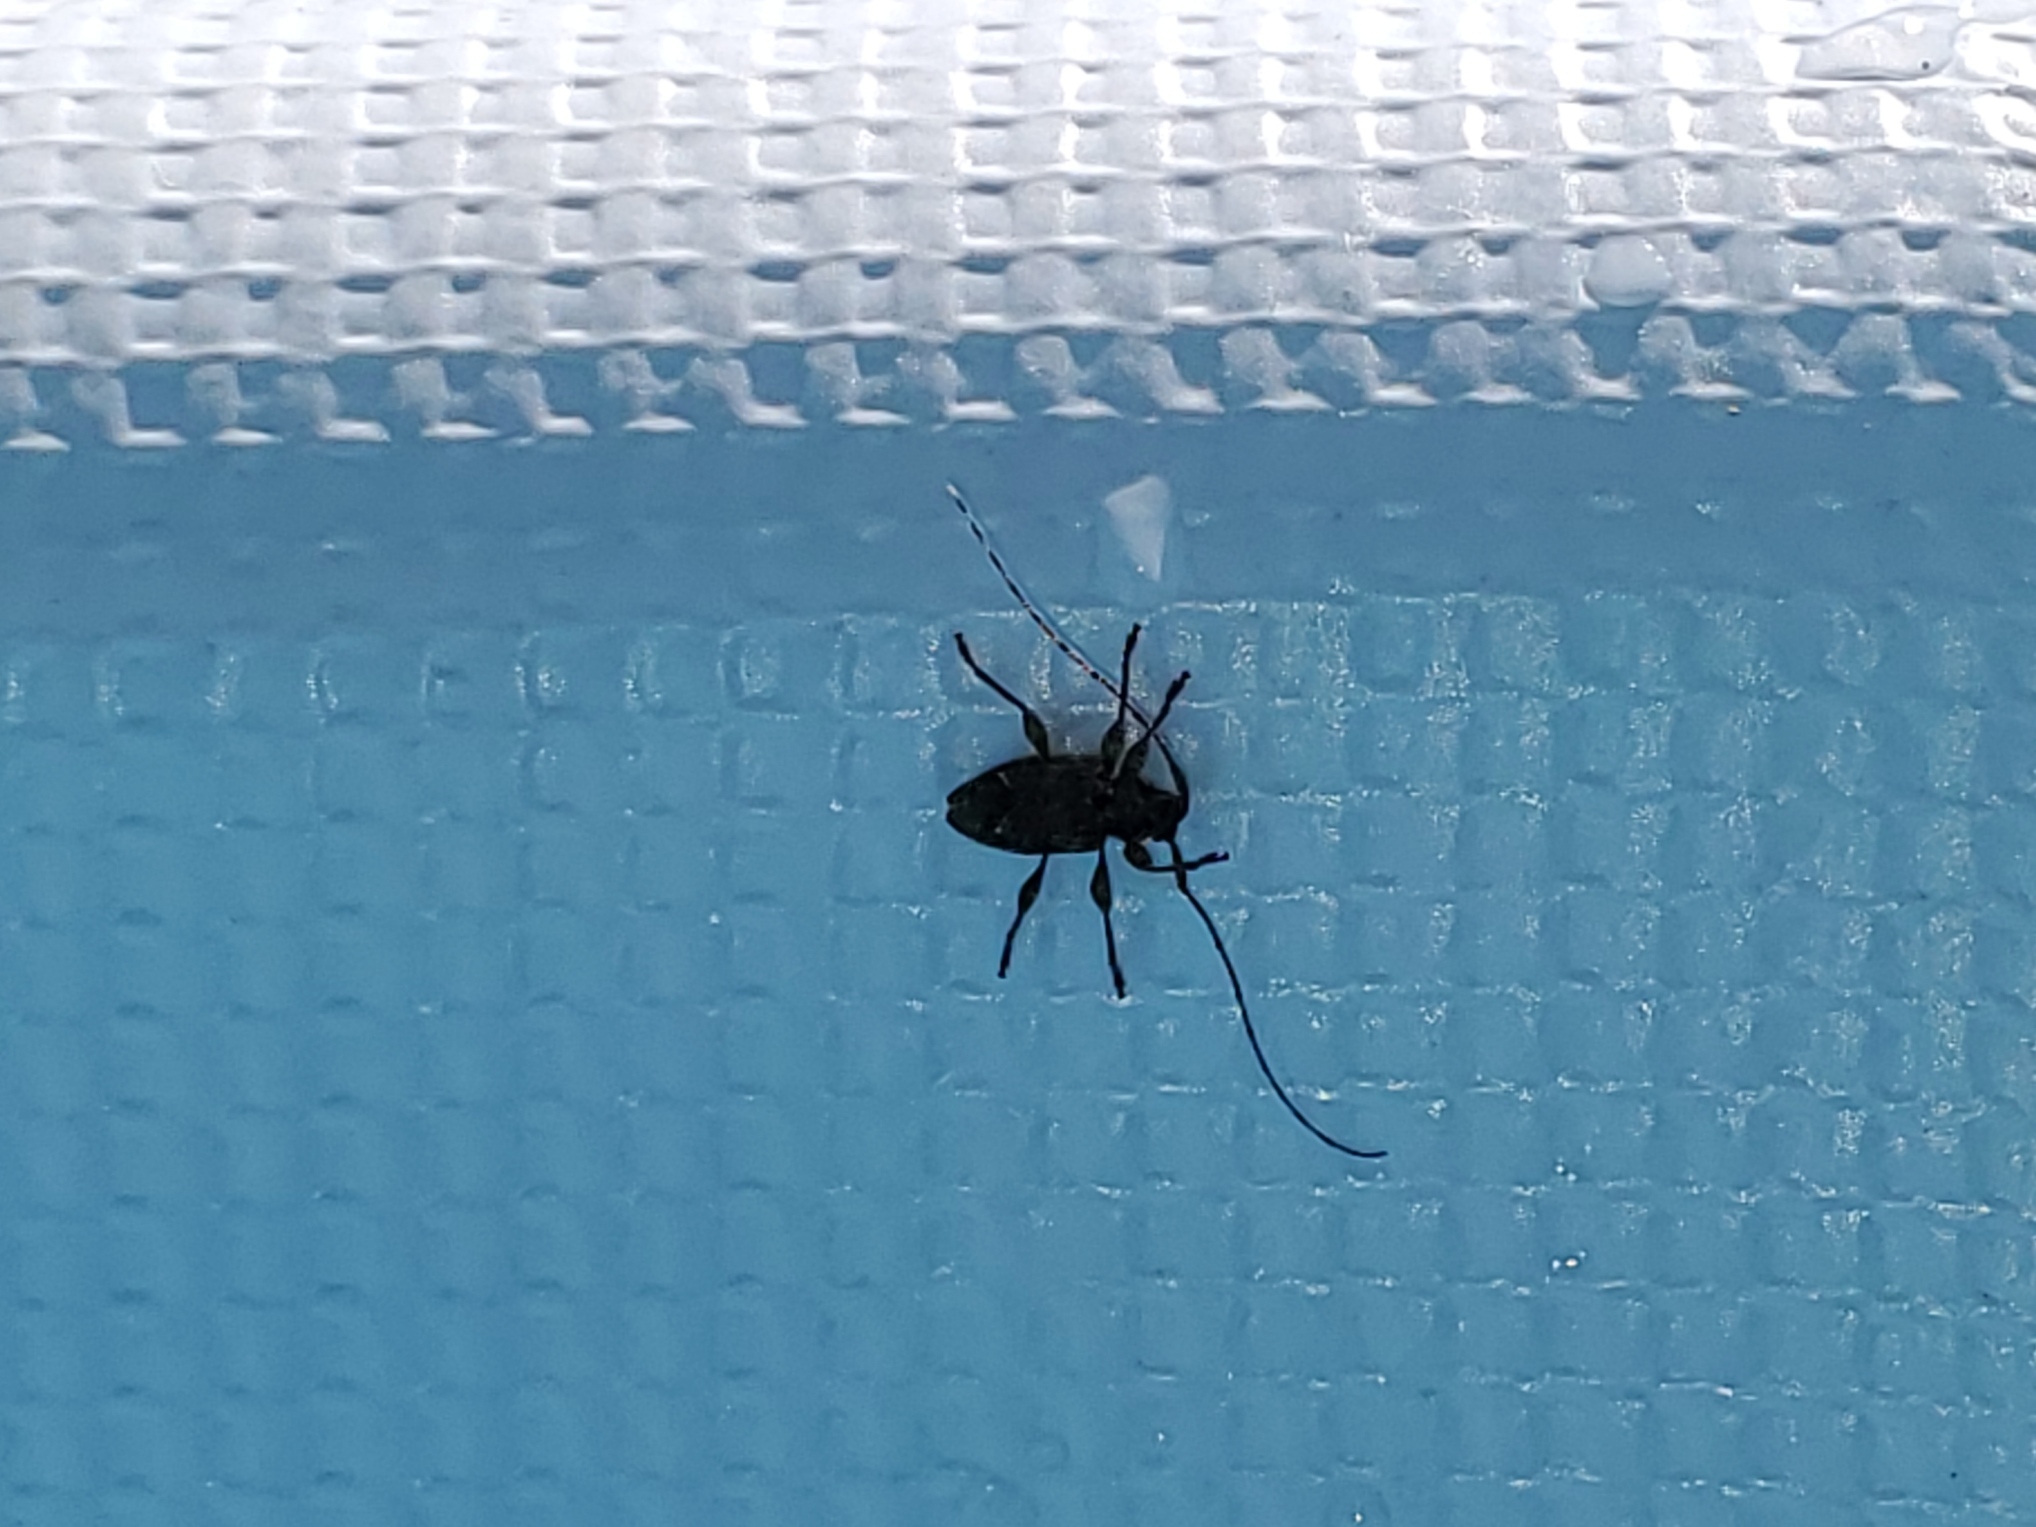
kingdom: Animalia
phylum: Arthropoda
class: Insecta
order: Coleoptera
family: Cerambycidae
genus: Aegomorphus
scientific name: Aegomorphus modestus
